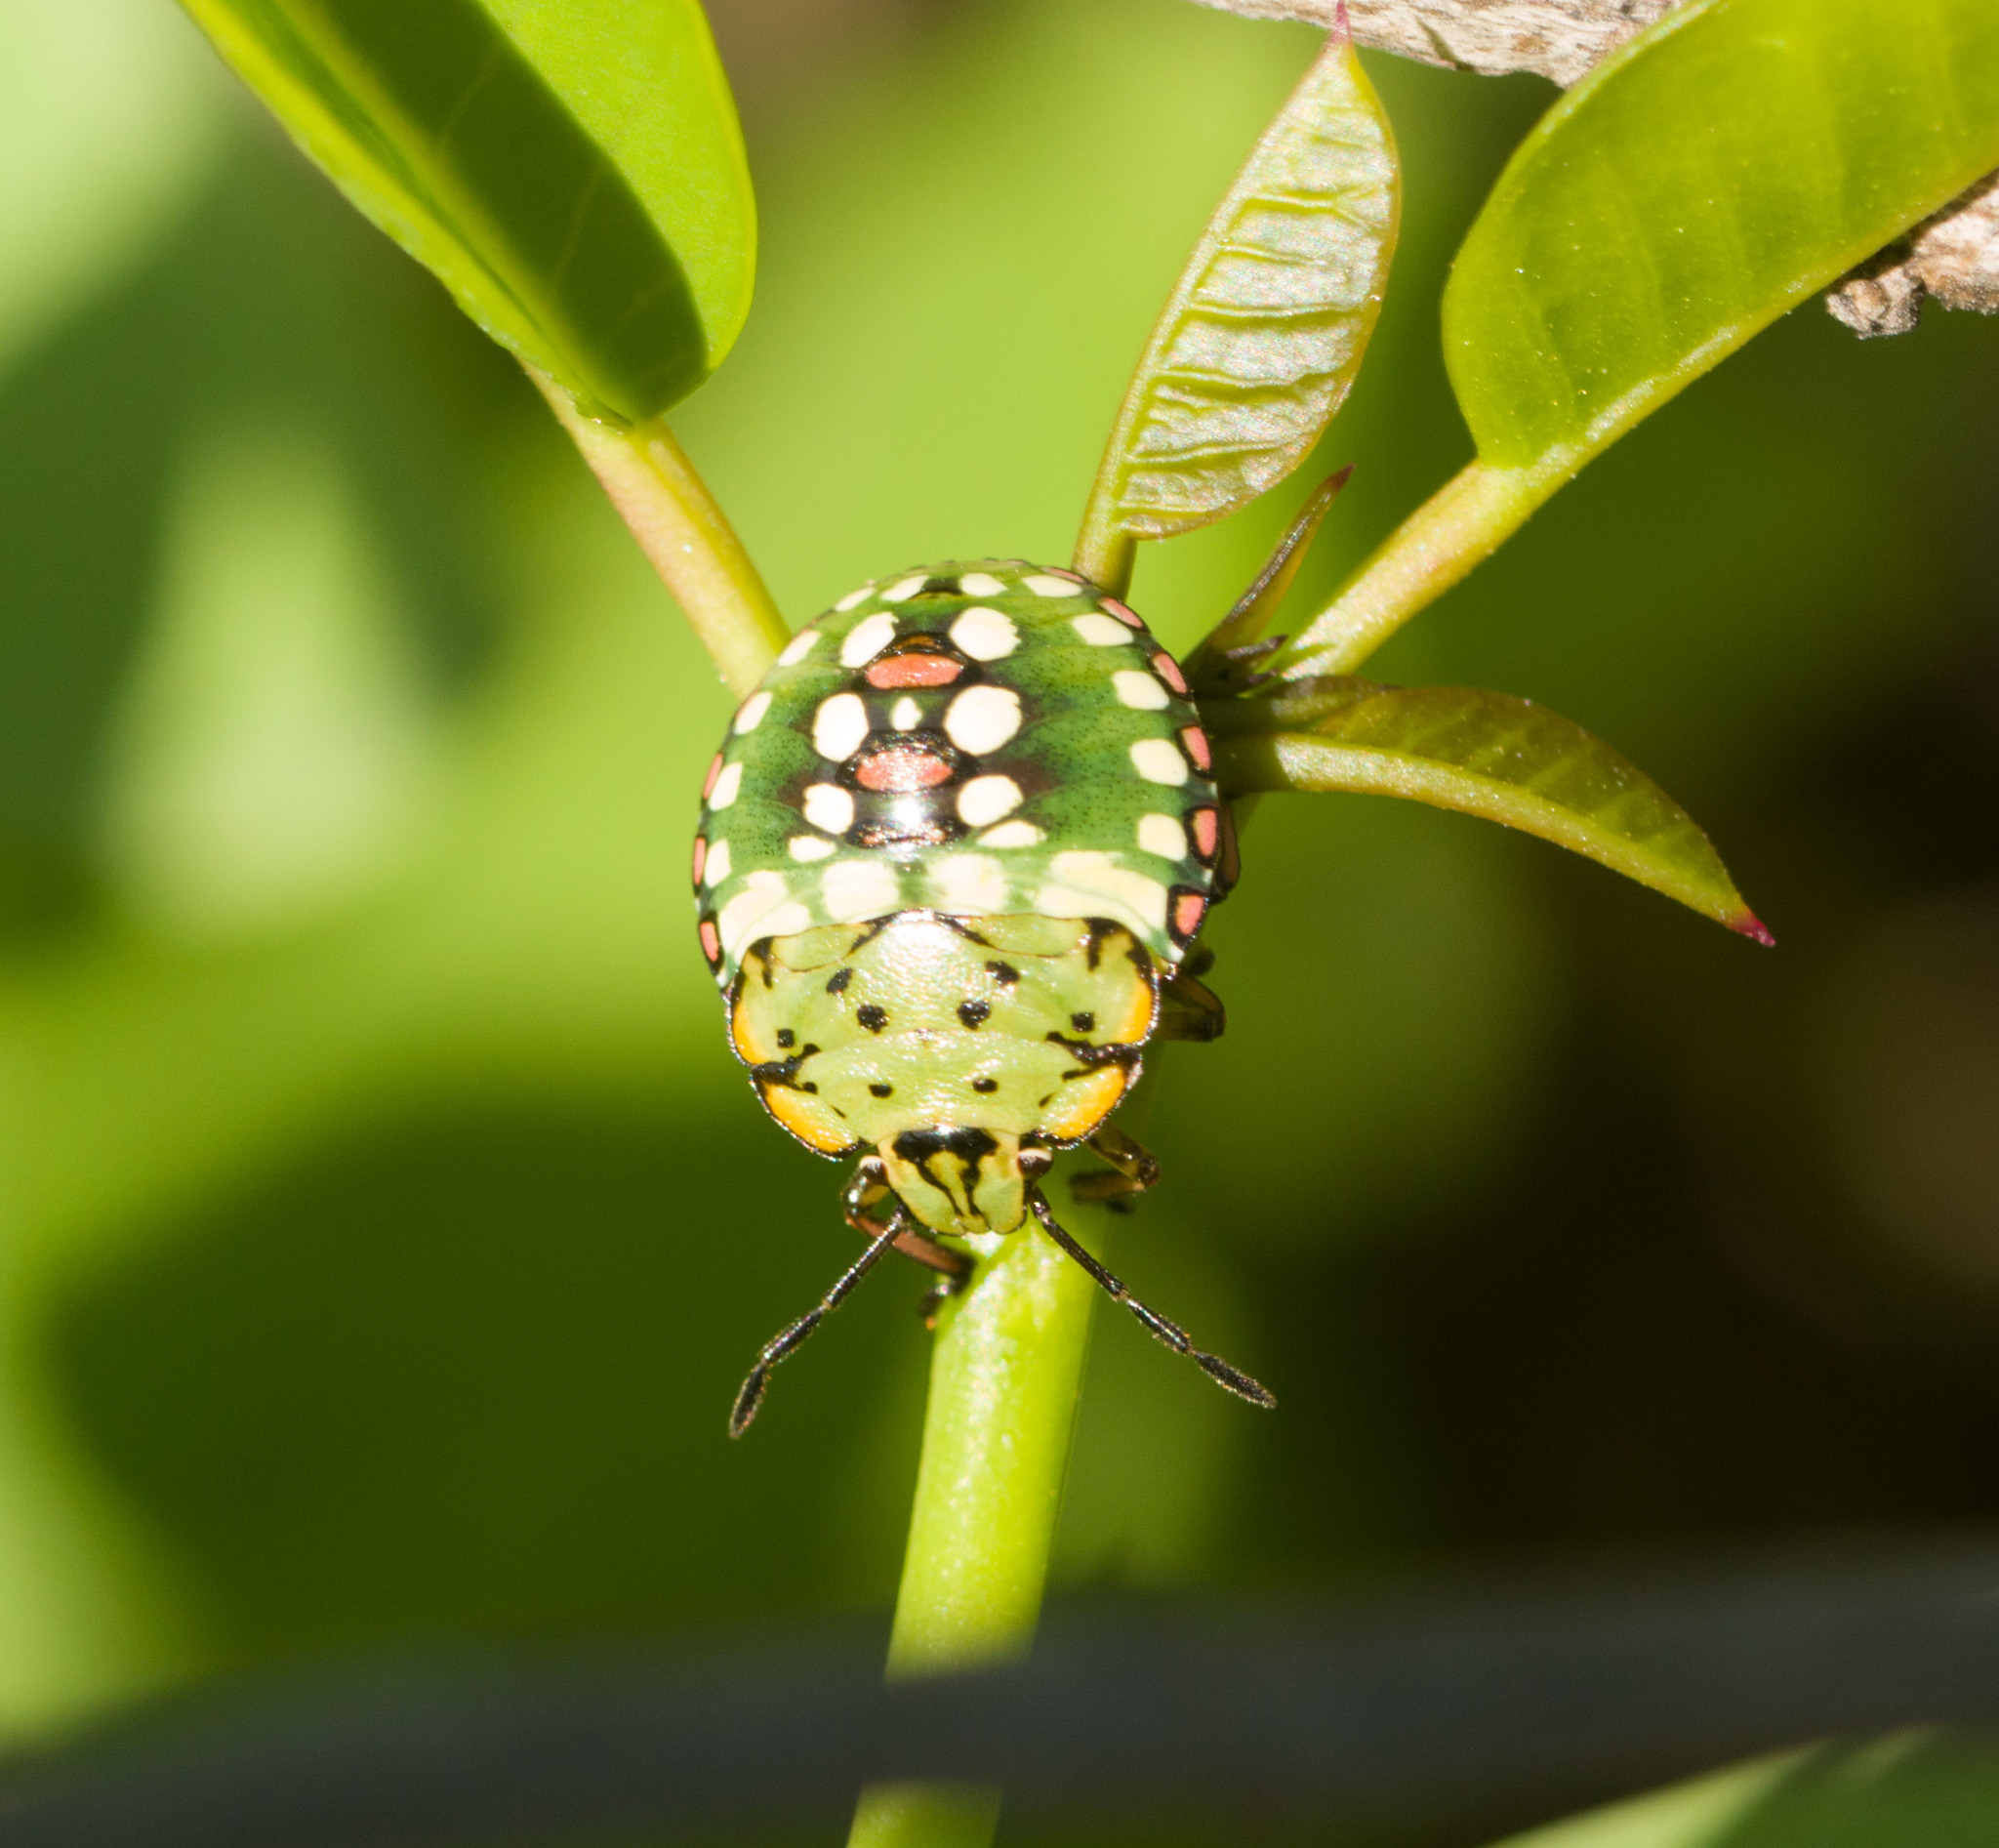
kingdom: Animalia
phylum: Arthropoda
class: Insecta
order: Hemiptera
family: Pentatomidae
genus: Nezara
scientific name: Nezara viridula
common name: Southern green stink bug
